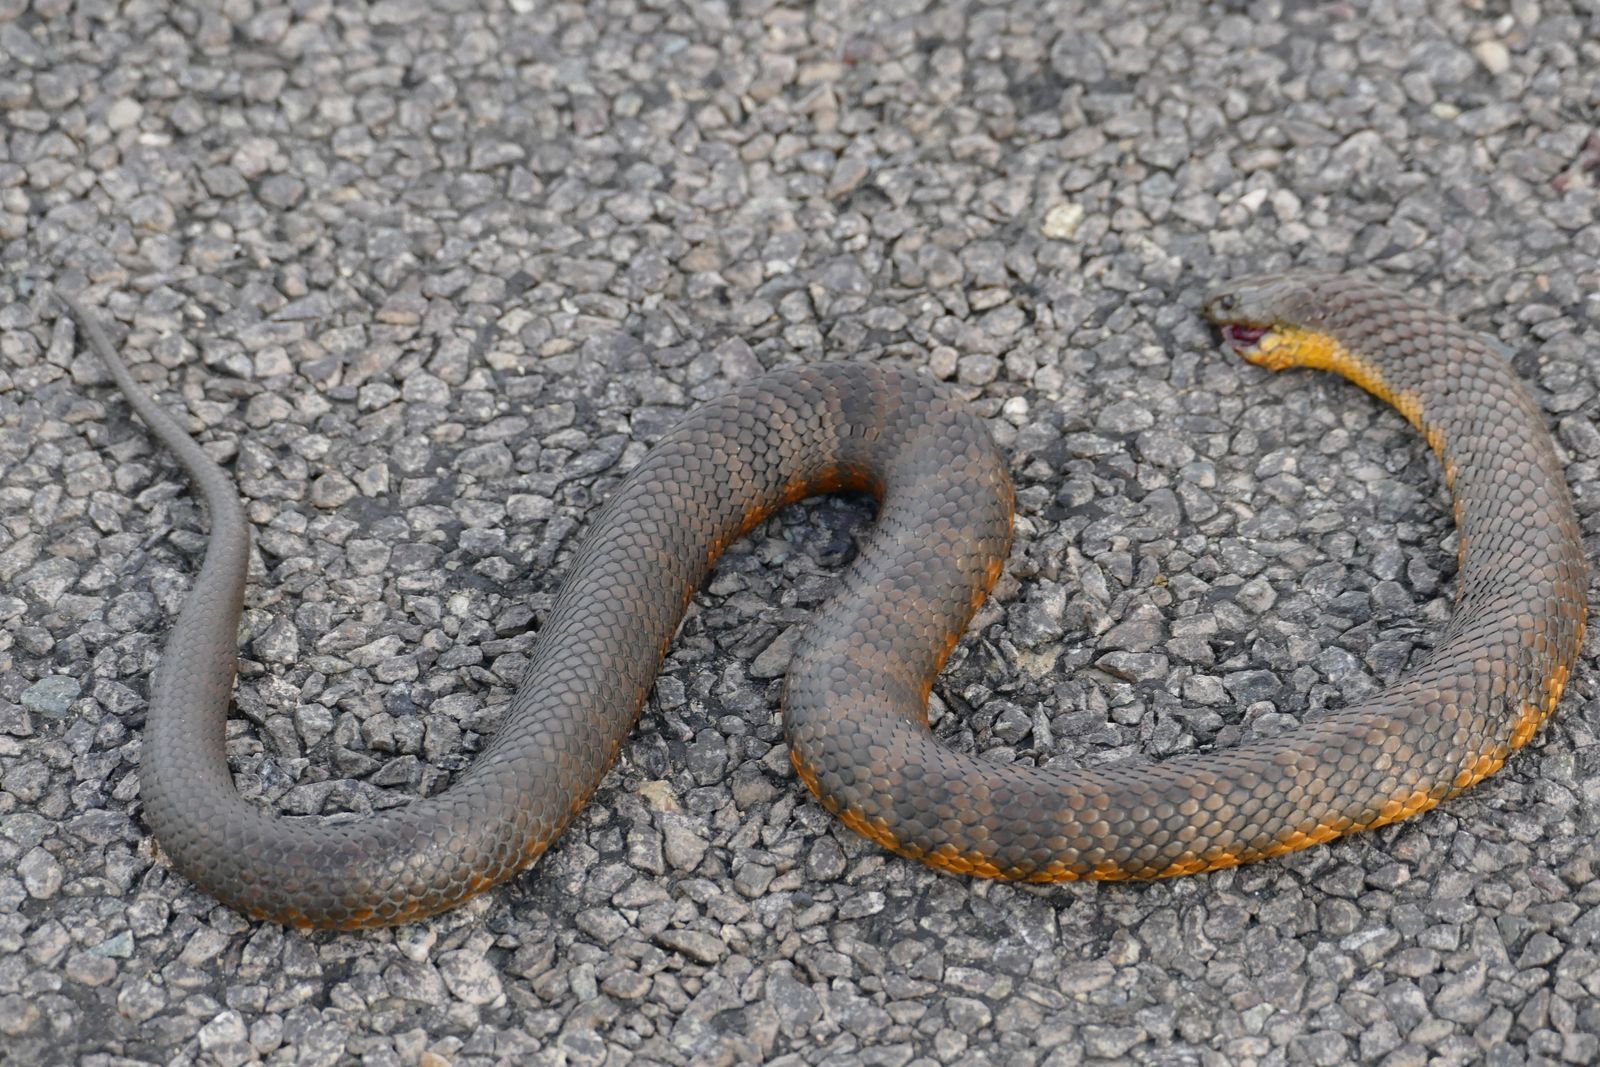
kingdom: Animalia
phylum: Chordata
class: Squamata
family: Elapidae
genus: Notechis
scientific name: Notechis scutatus
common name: Mainland tiger snake
